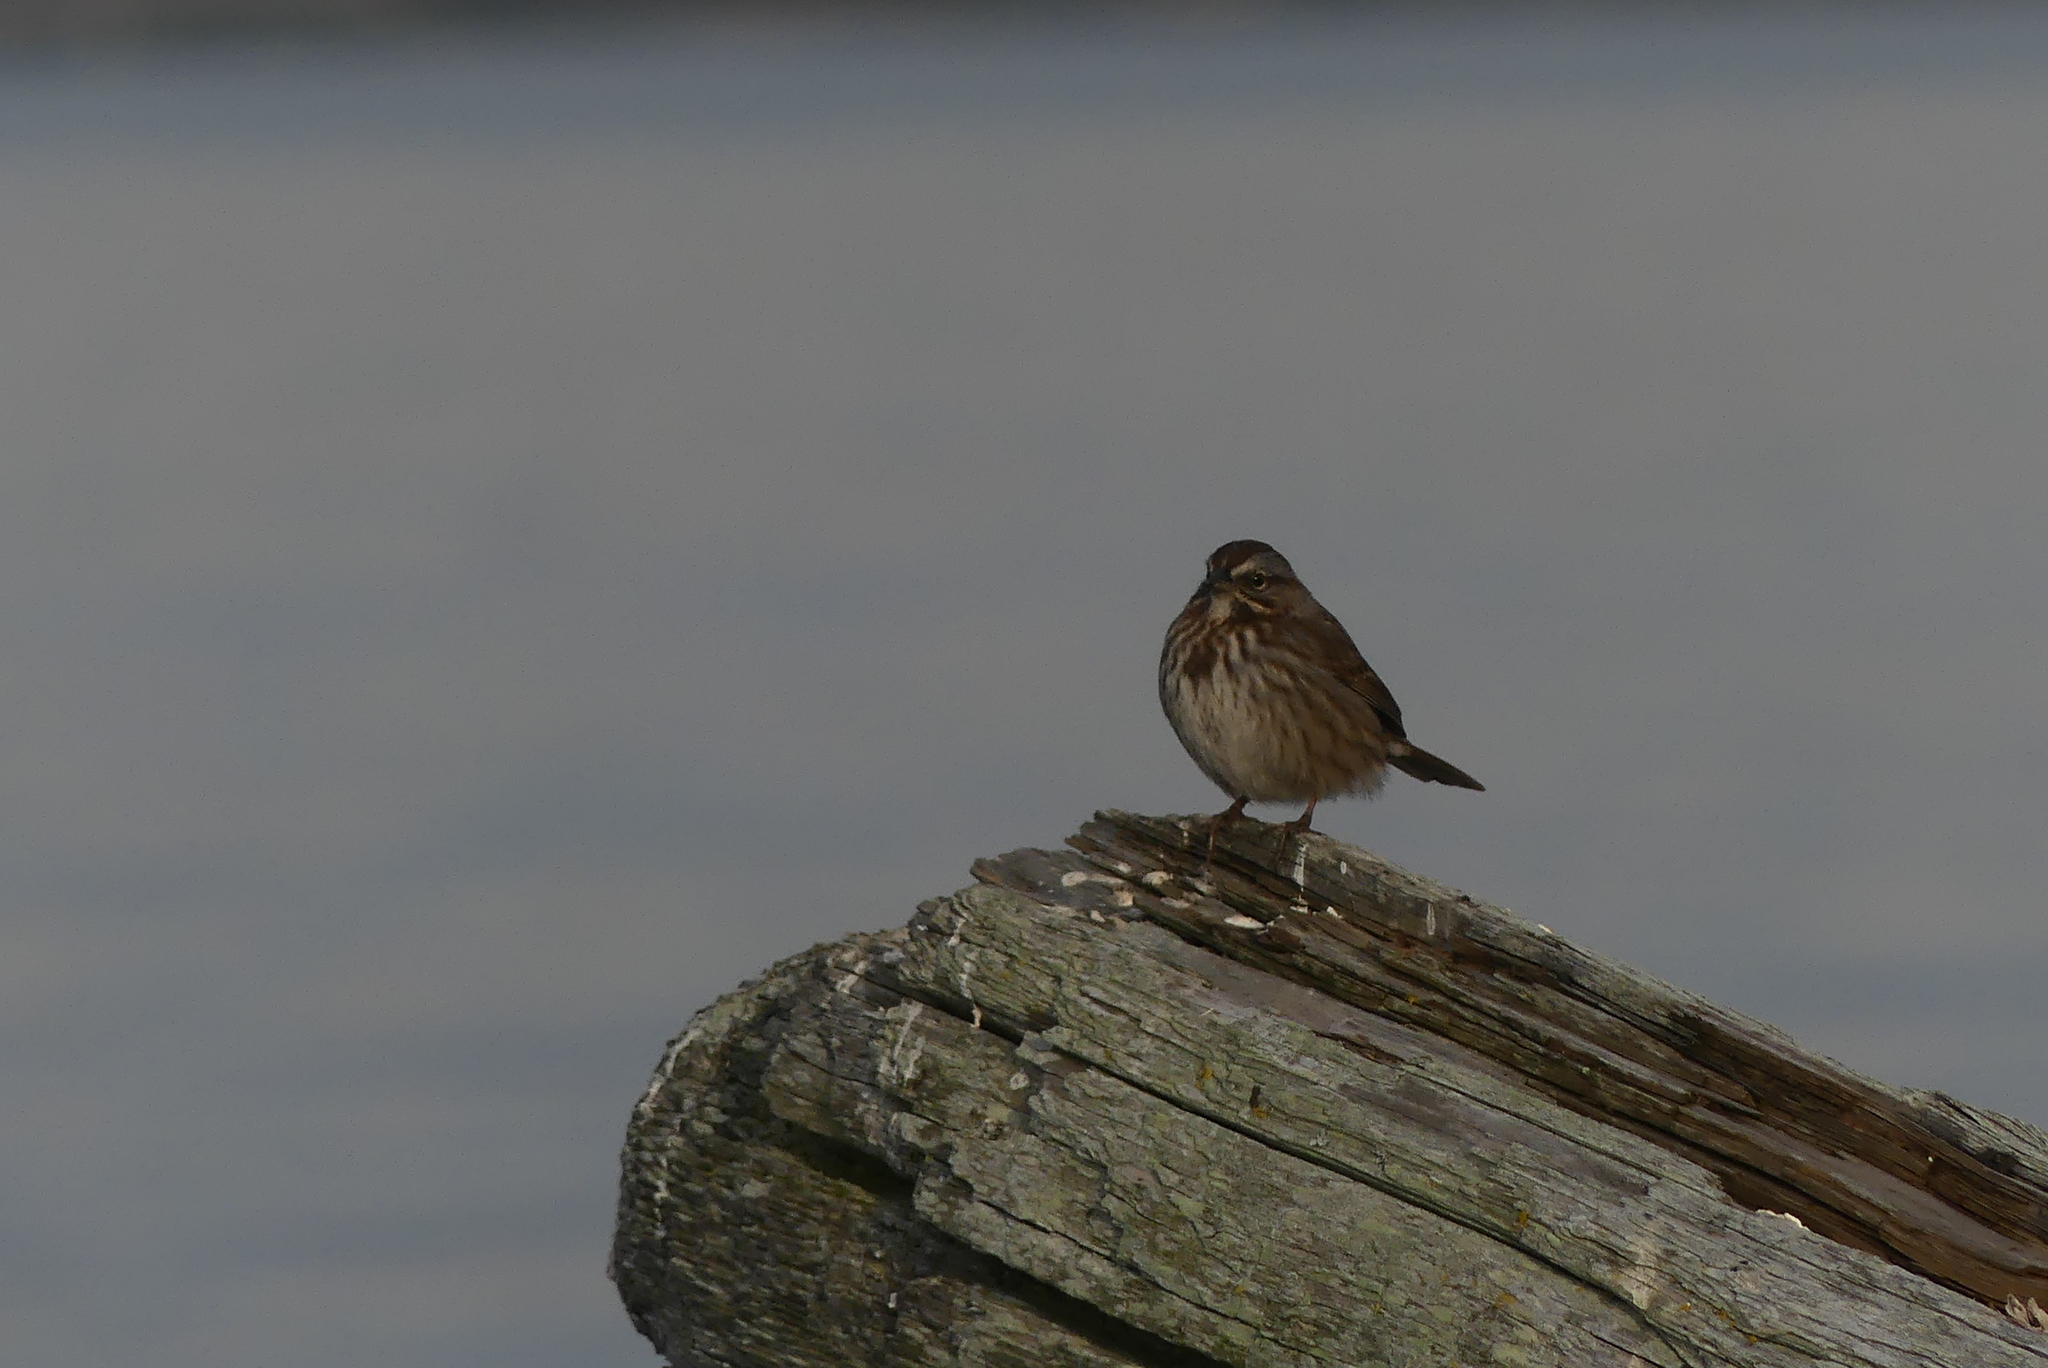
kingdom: Animalia
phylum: Chordata
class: Aves
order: Passeriformes
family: Passerellidae
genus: Melospiza
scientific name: Melospiza melodia
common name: Song sparrow
